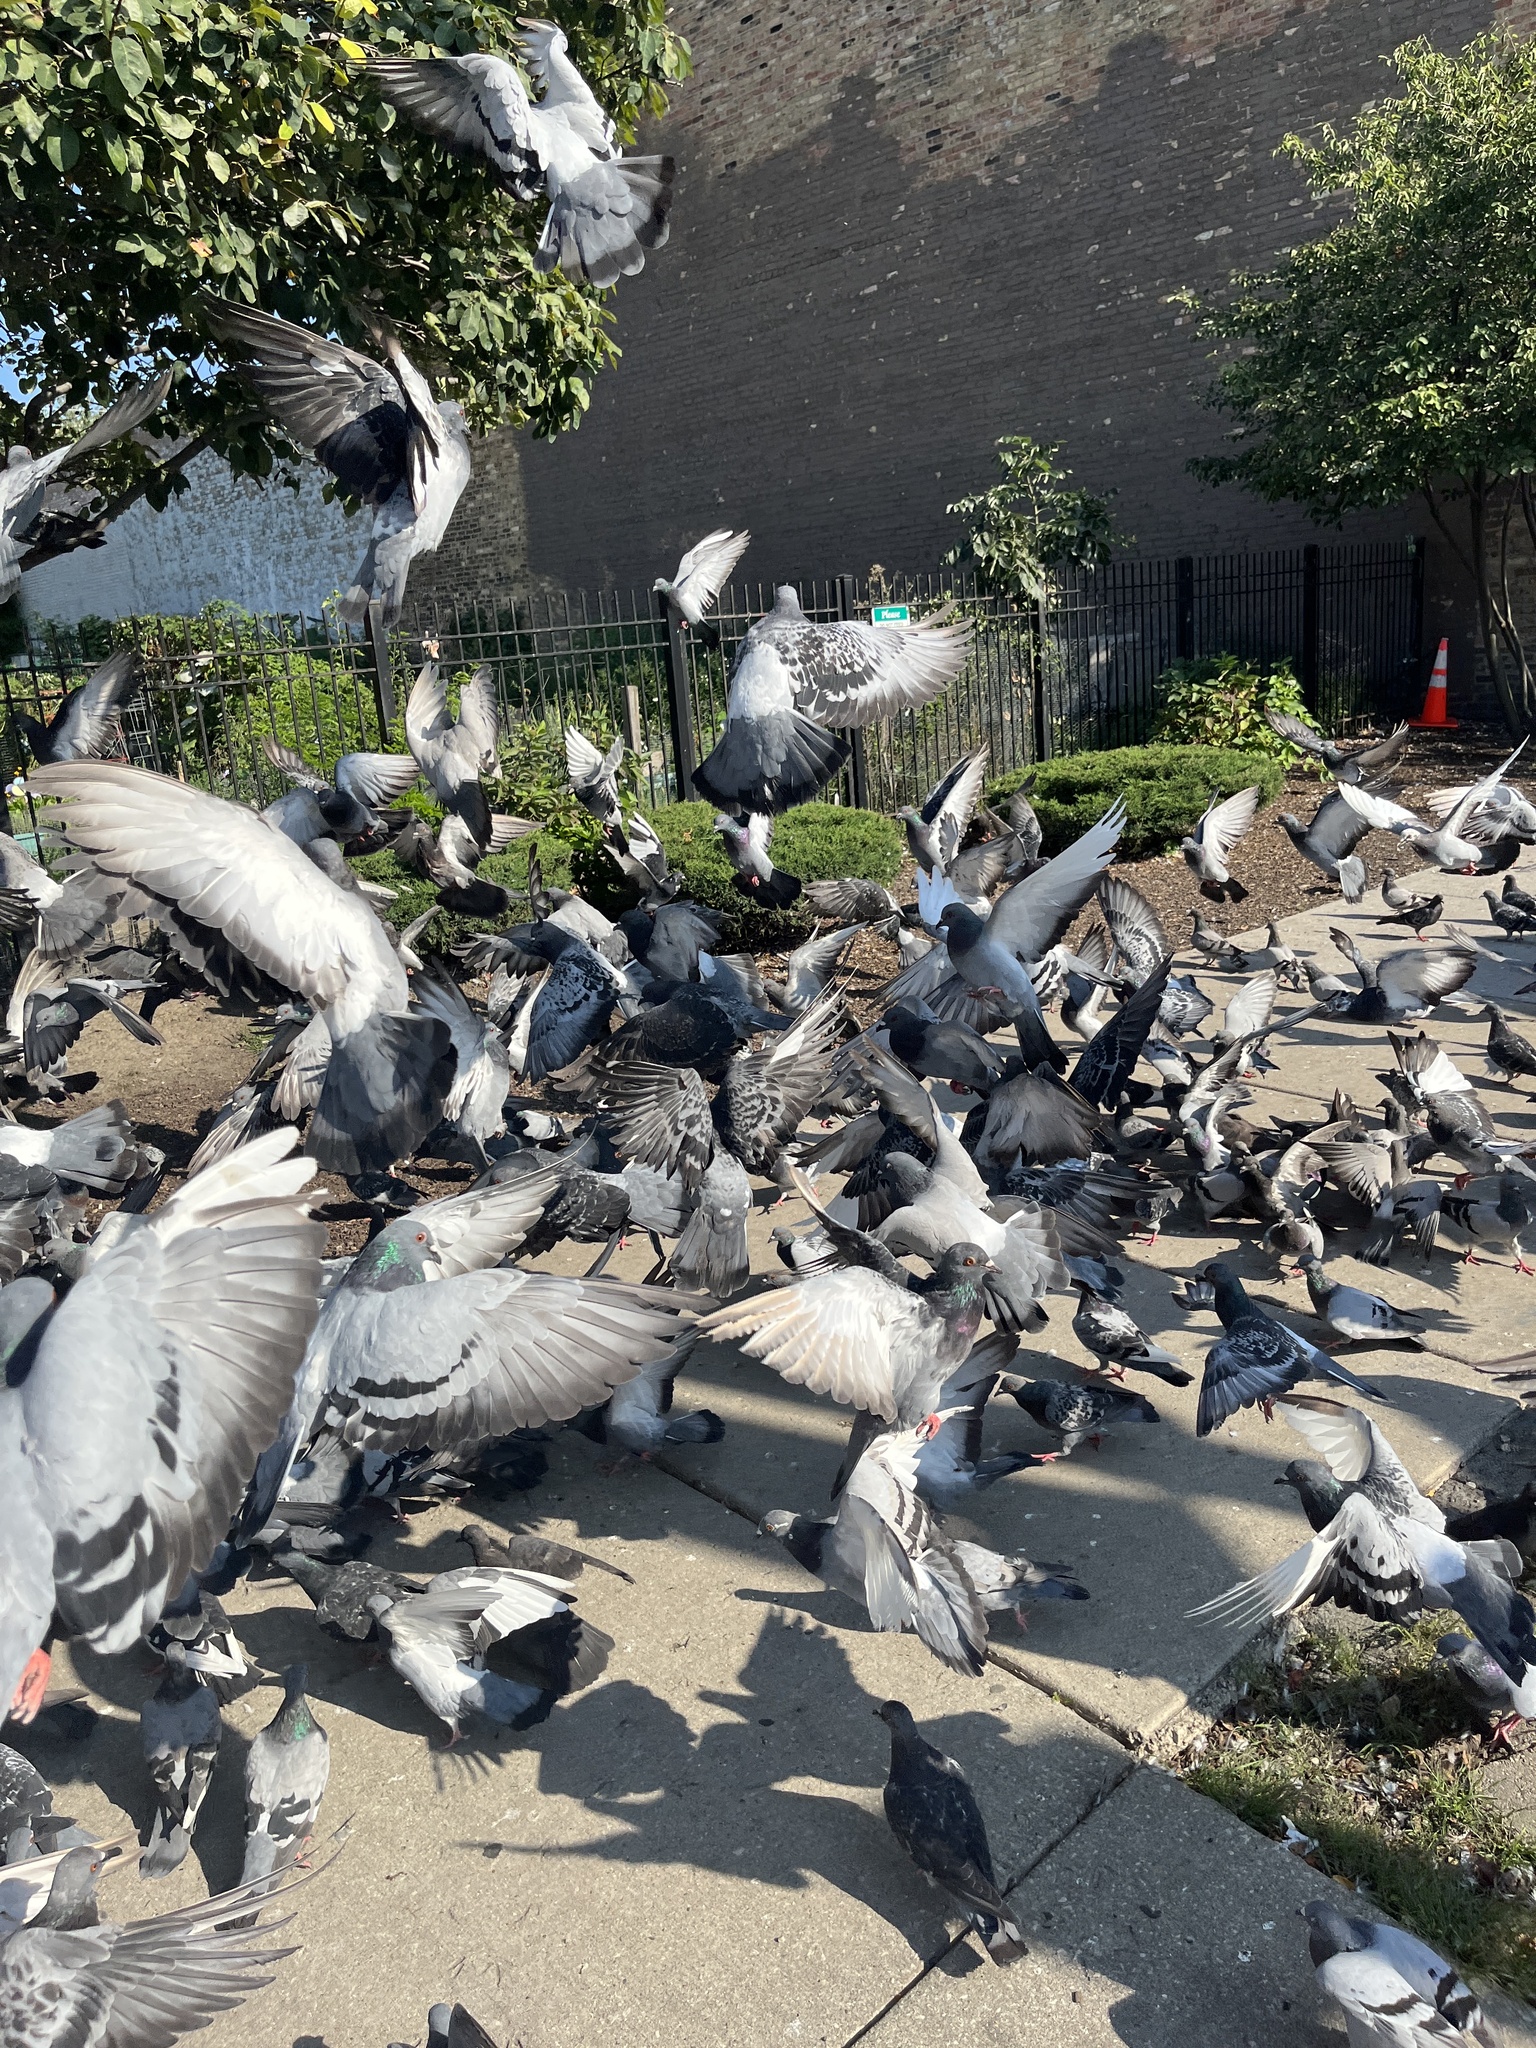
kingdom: Animalia
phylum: Chordata
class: Aves
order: Columbiformes
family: Columbidae
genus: Columba
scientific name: Columba livia
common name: Rock pigeon
